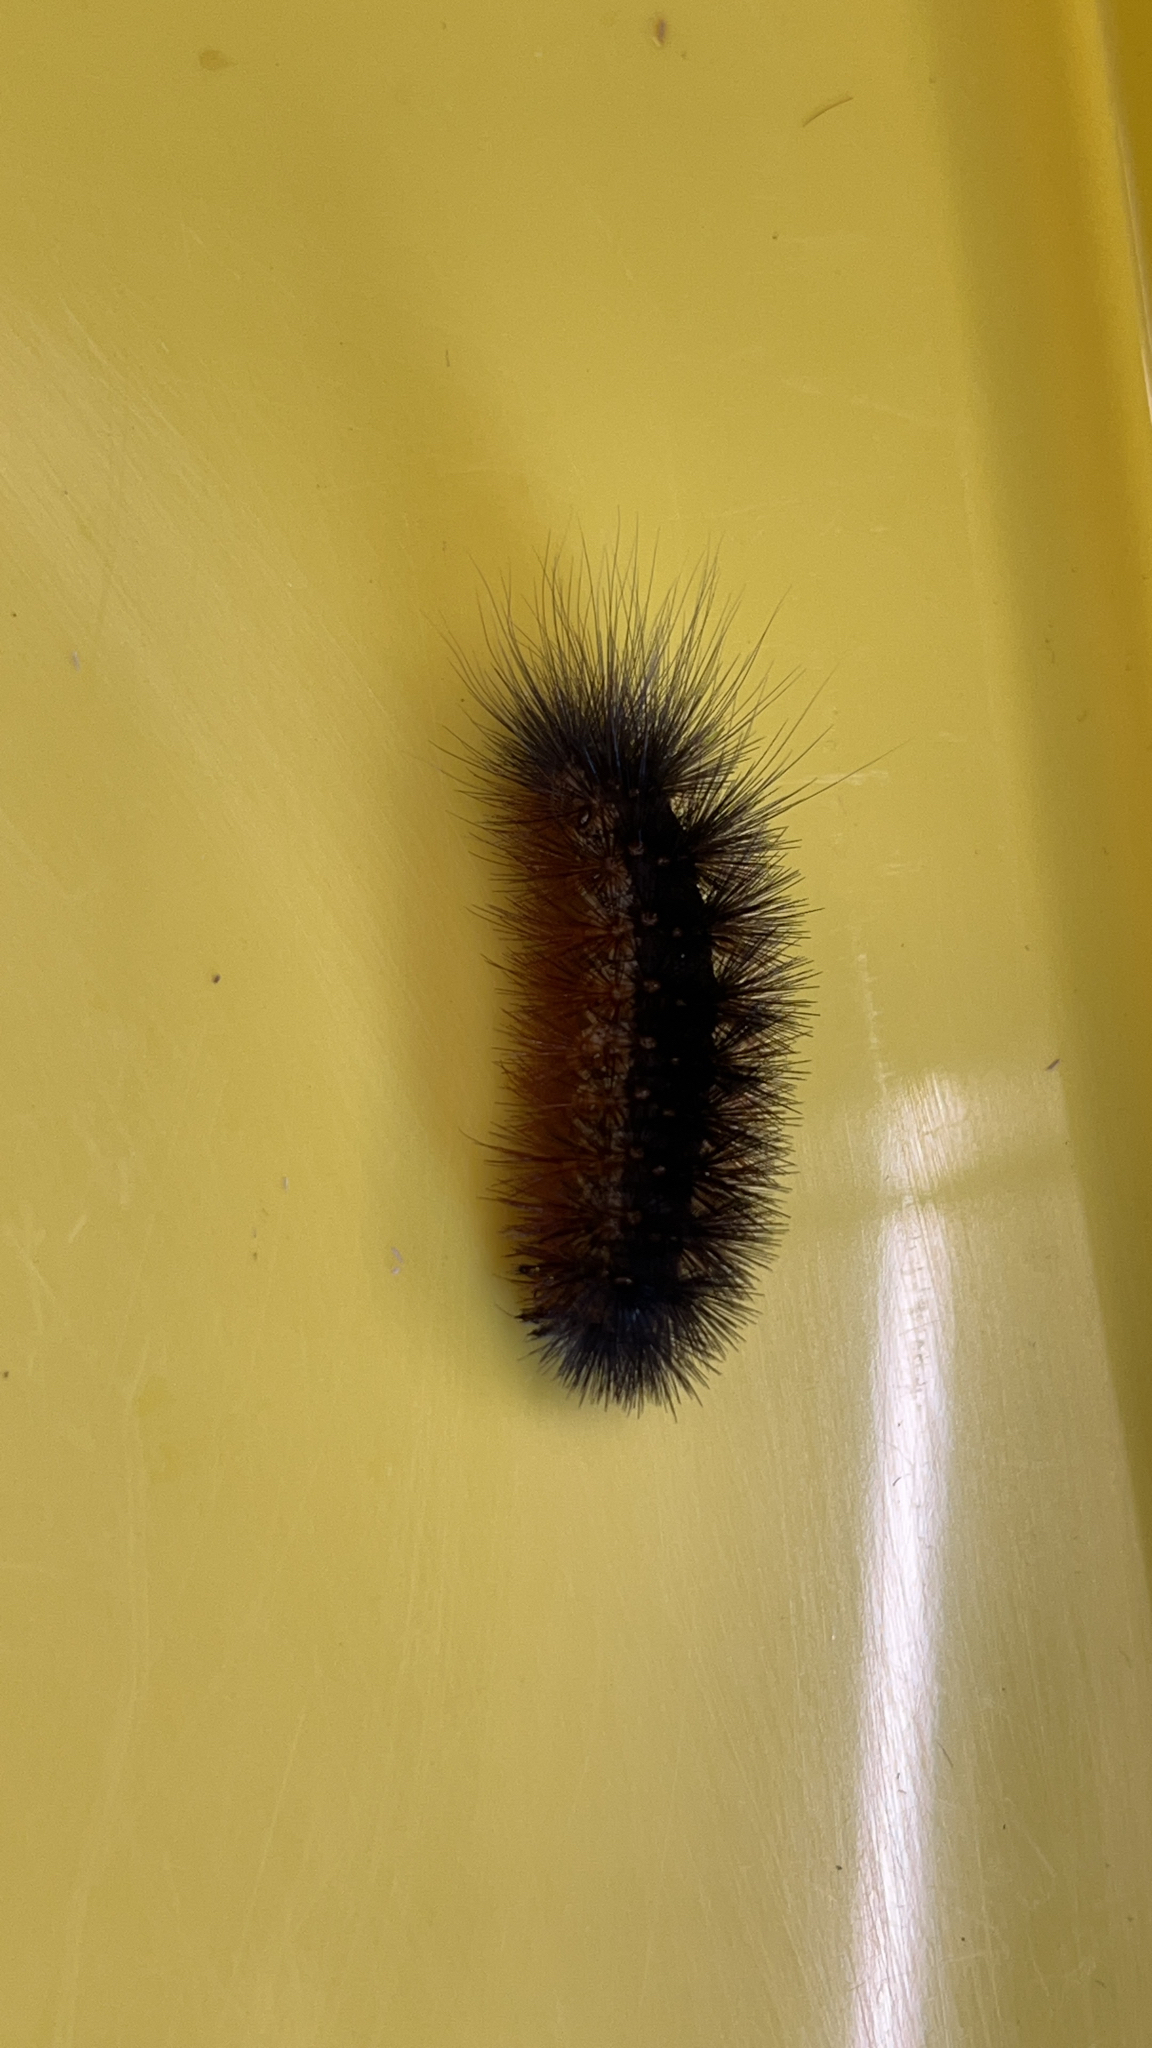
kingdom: Animalia
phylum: Arthropoda
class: Insecta
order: Lepidoptera
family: Erebidae
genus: Estigmene
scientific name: Estigmene acrea
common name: Salt marsh moth
